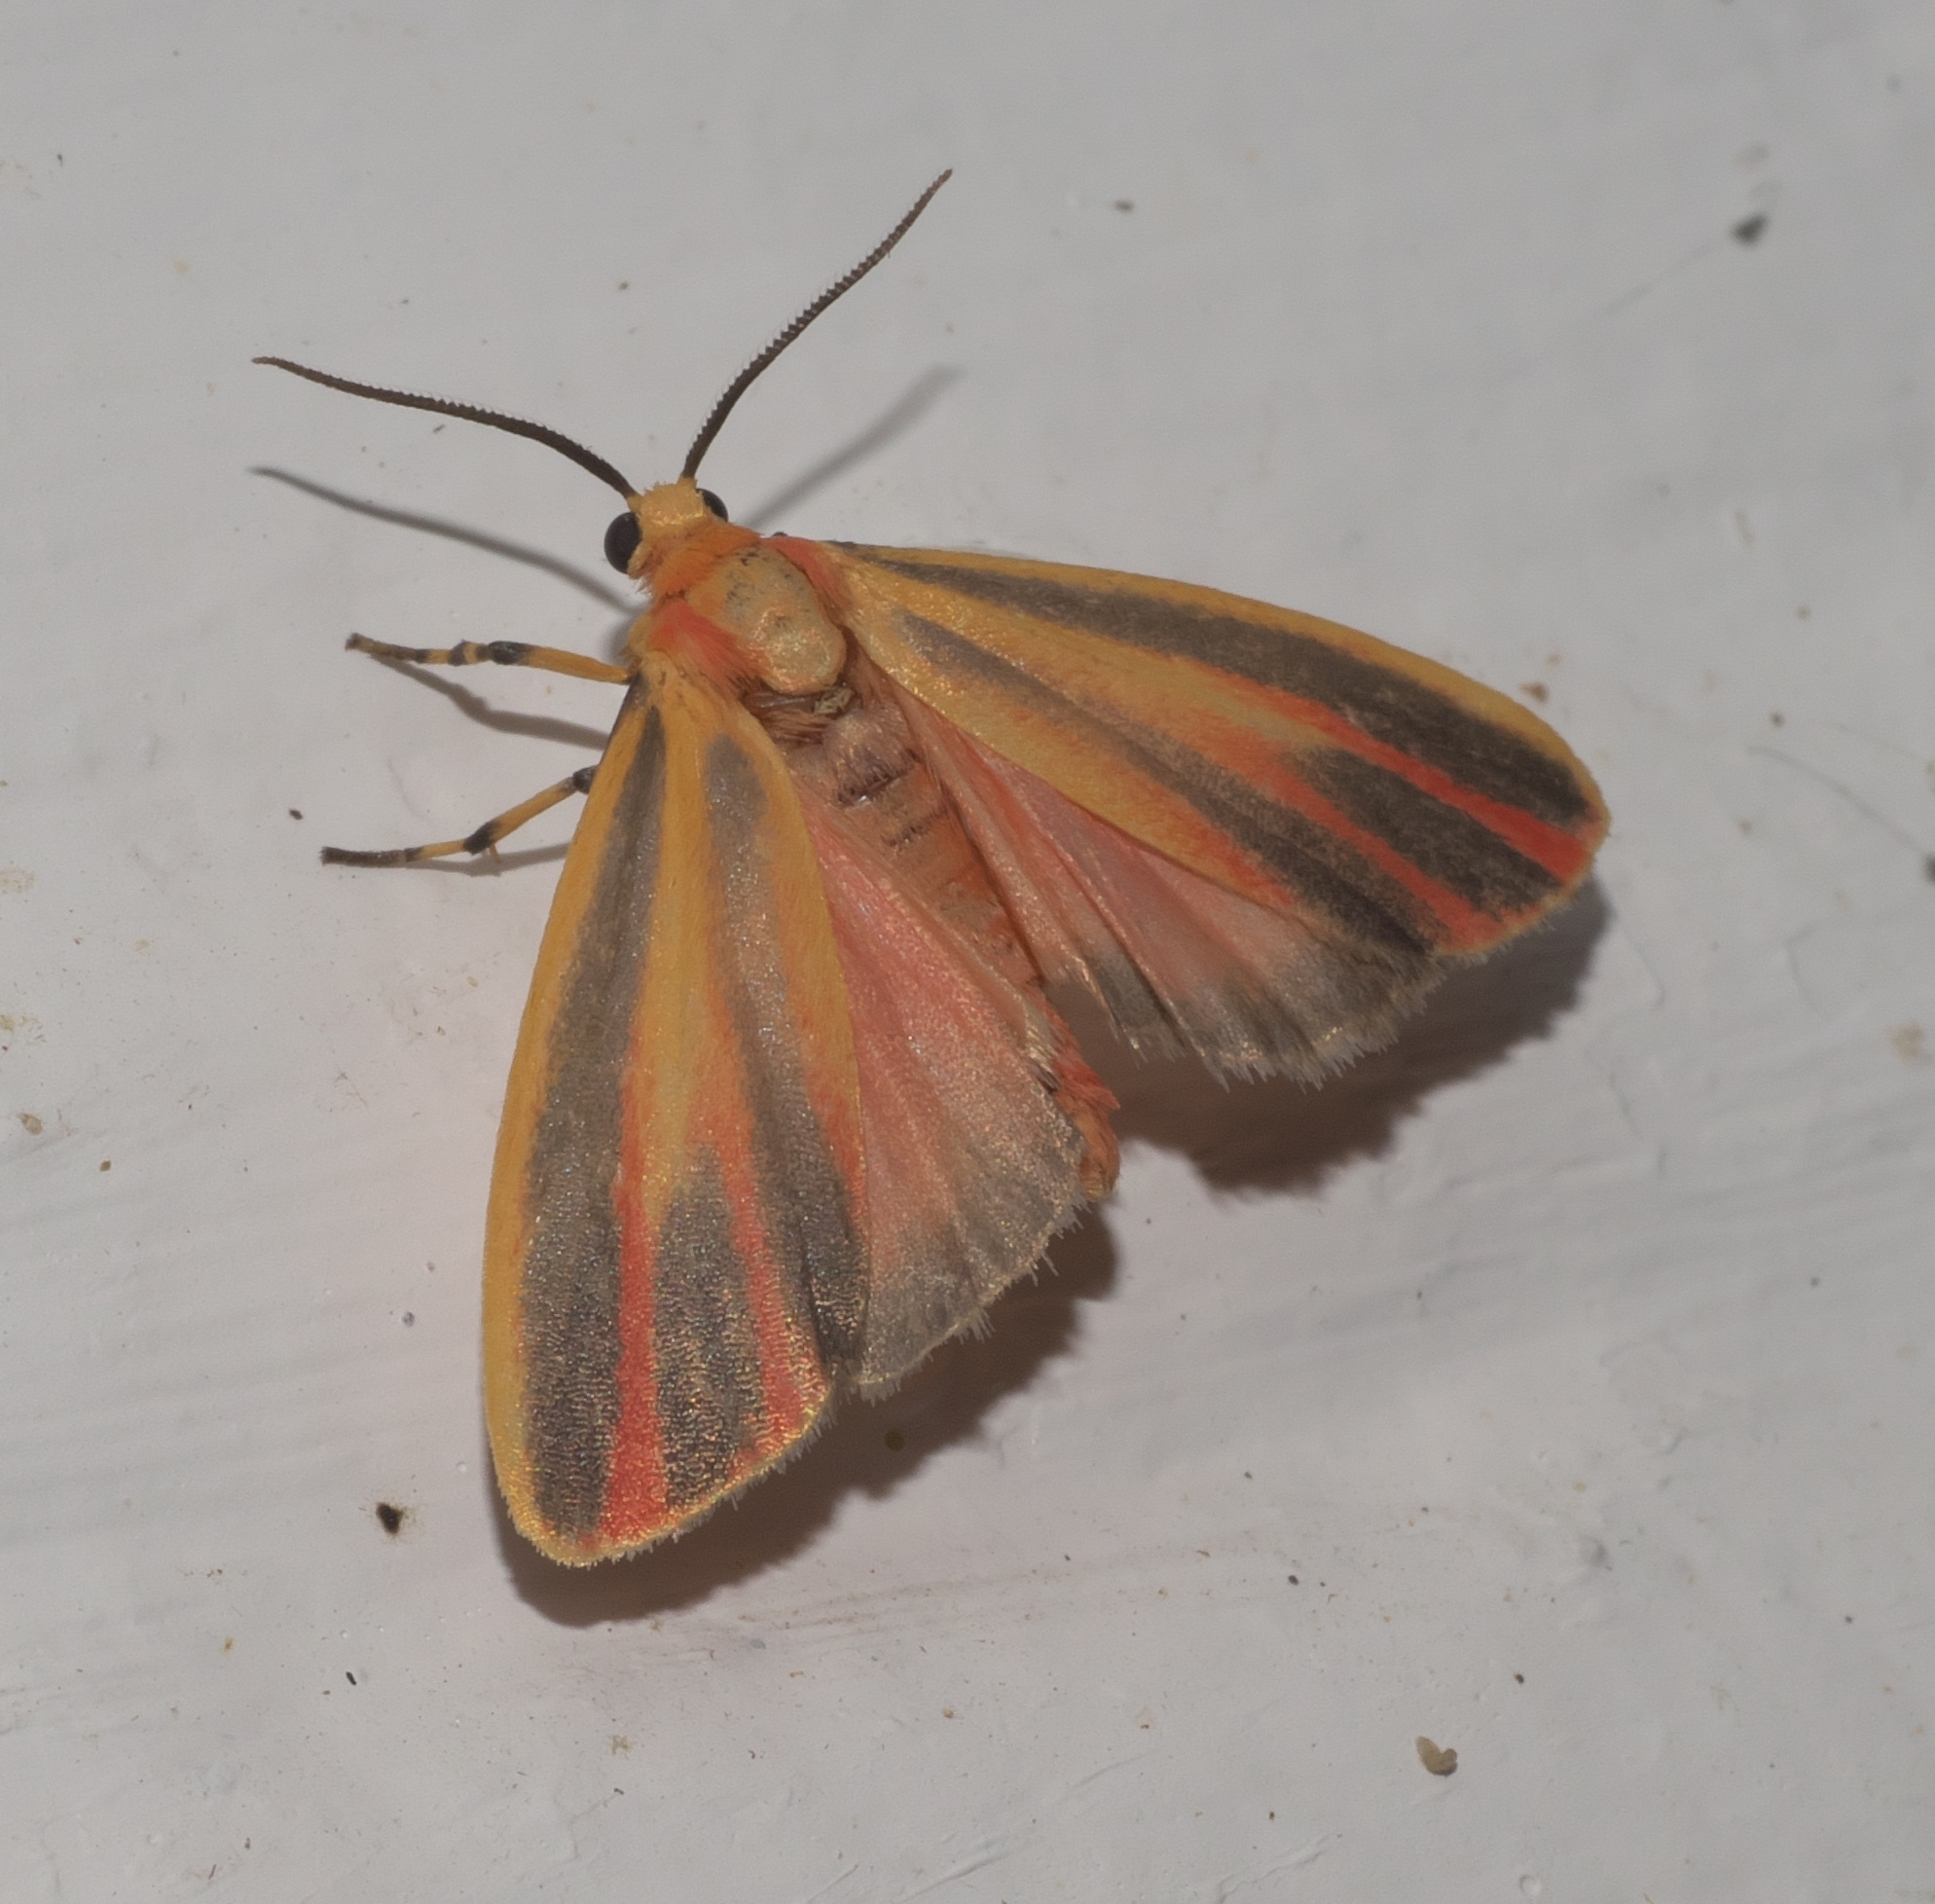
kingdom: Animalia
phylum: Arthropoda
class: Insecta
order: Lepidoptera
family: Erebidae
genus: Hypoprepia
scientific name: Hypoprepia fucosa
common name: Painted lichen moth
